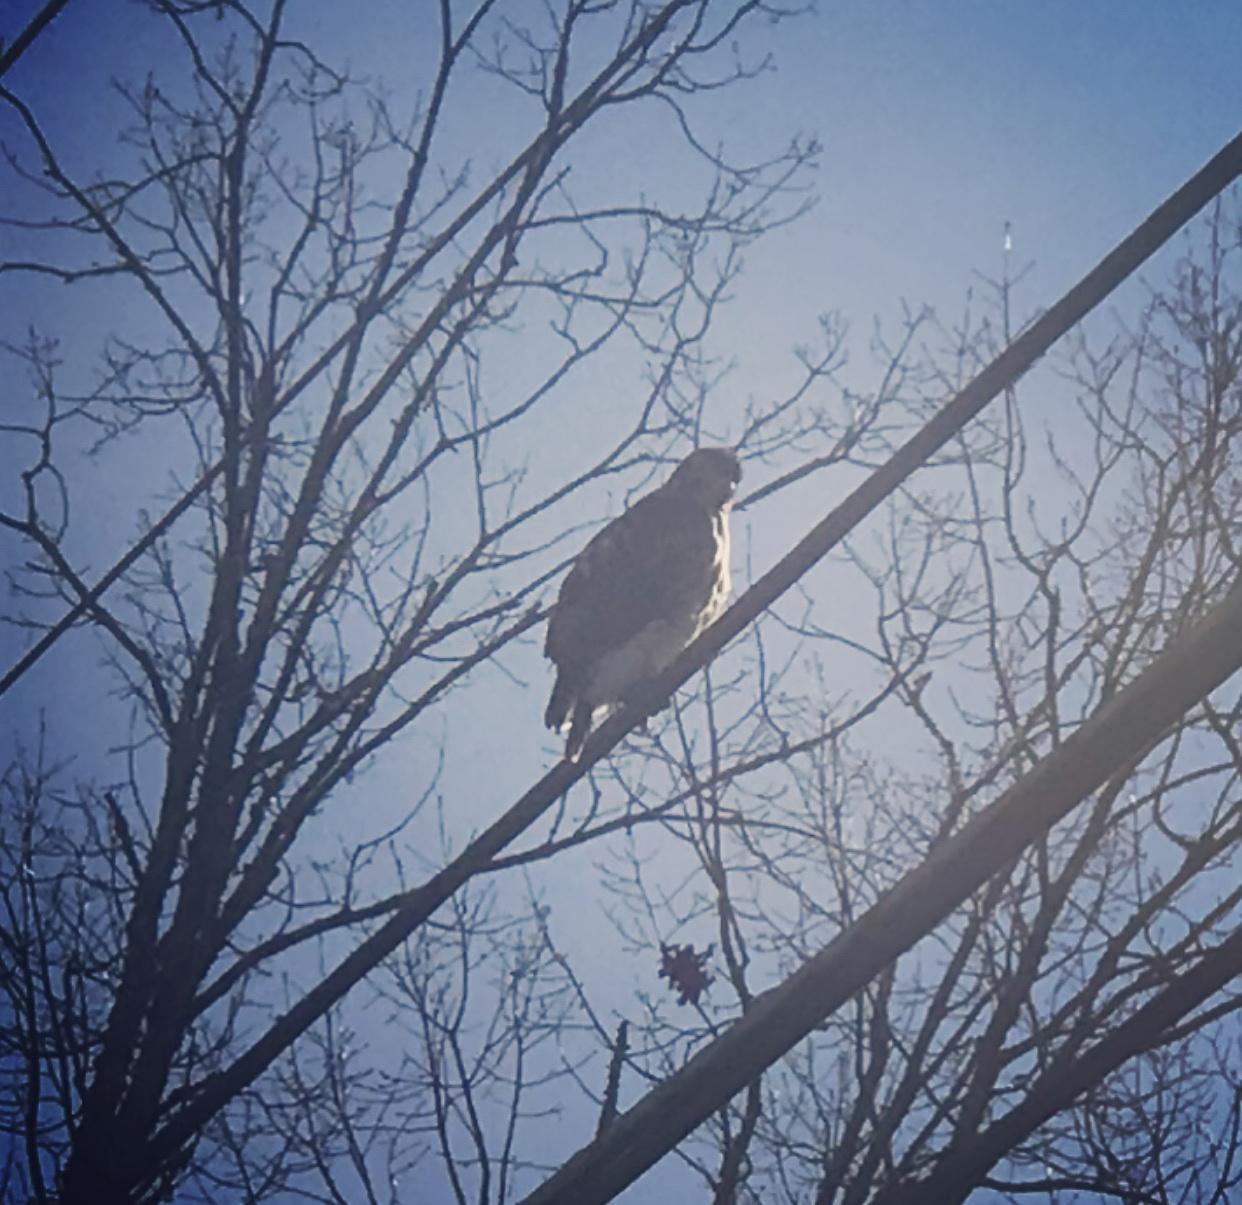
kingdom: Animalia
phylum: Chordata
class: Aves
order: Accipitriformes
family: Accipitridae
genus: Buteo
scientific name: Buteo jamaicensis
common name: Red-tailed hawk
